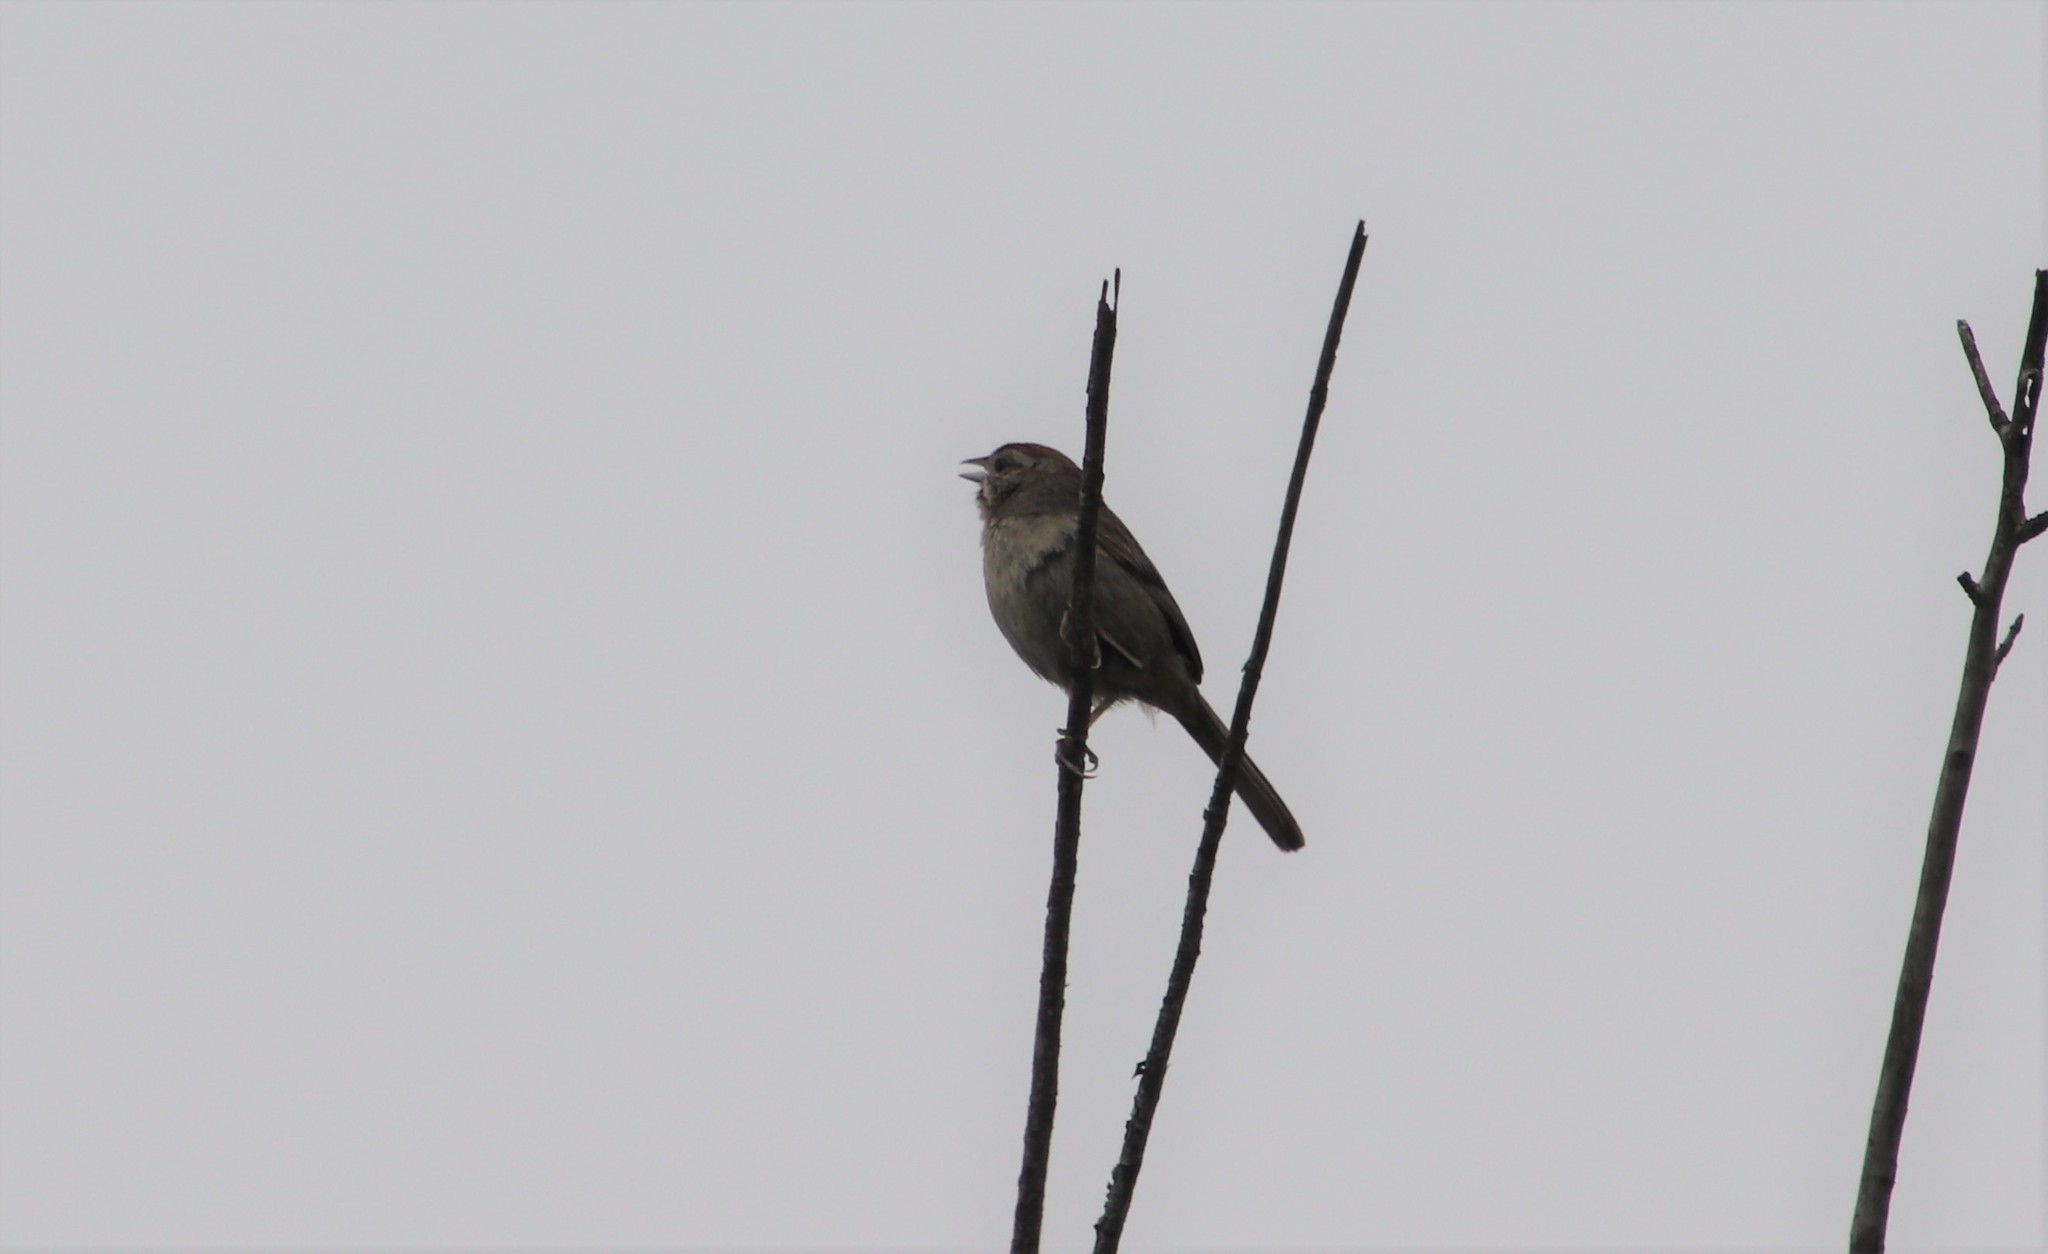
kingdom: Animalia
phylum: Chordata
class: Aves
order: Passeriformes
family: Passerellidae
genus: Aimophila
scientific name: Aimophila ruficeps
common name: Rufous-crowned sparrow
